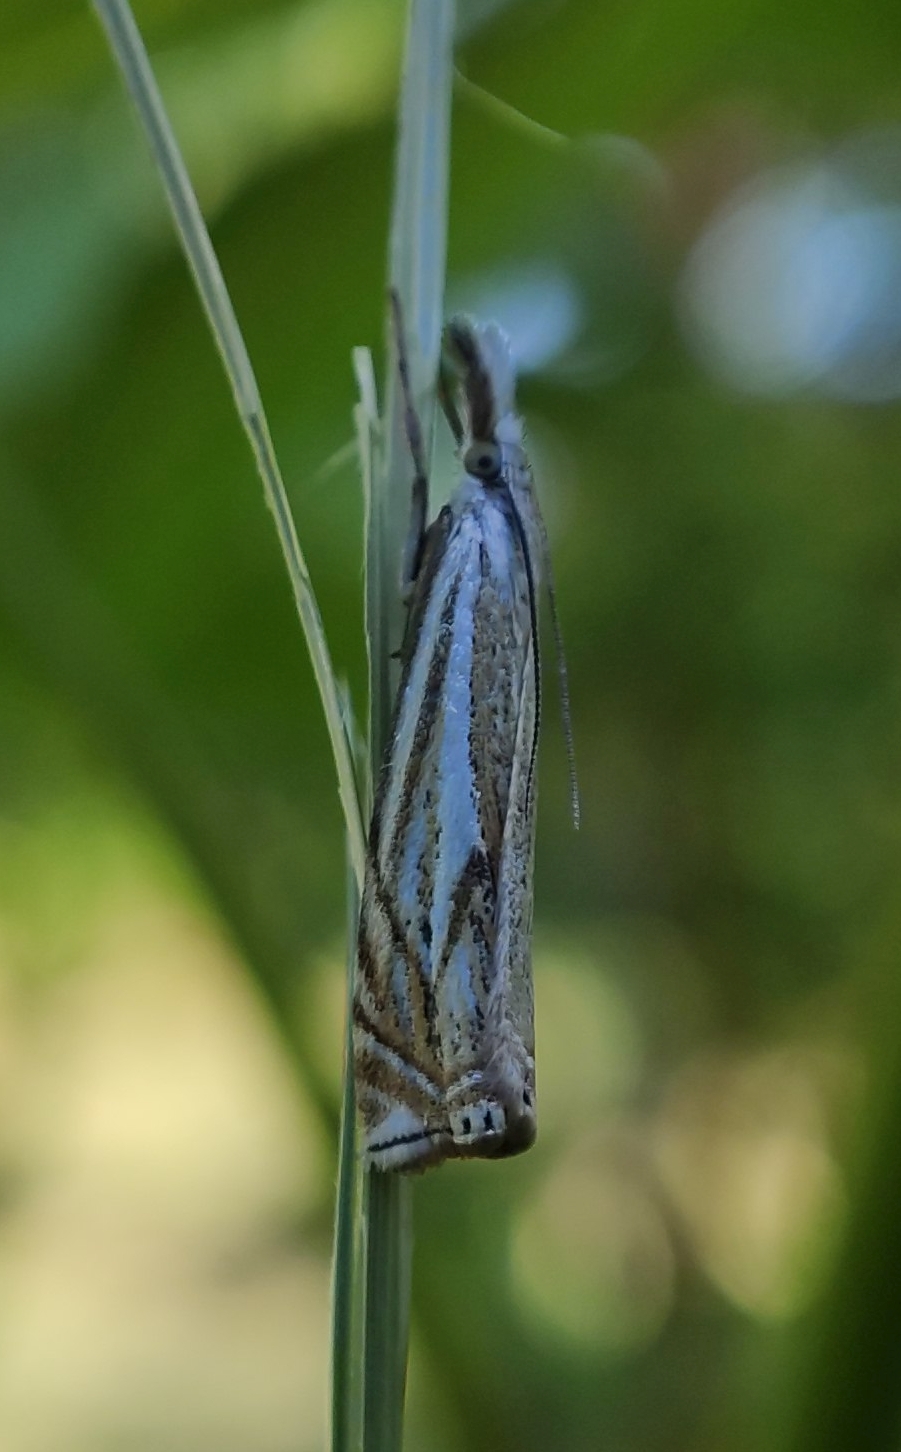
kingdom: Animalia
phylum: Arthropoda
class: Insecta
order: Lepidoptera
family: Crambidae
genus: Crambus
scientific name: Crambus nemorella
